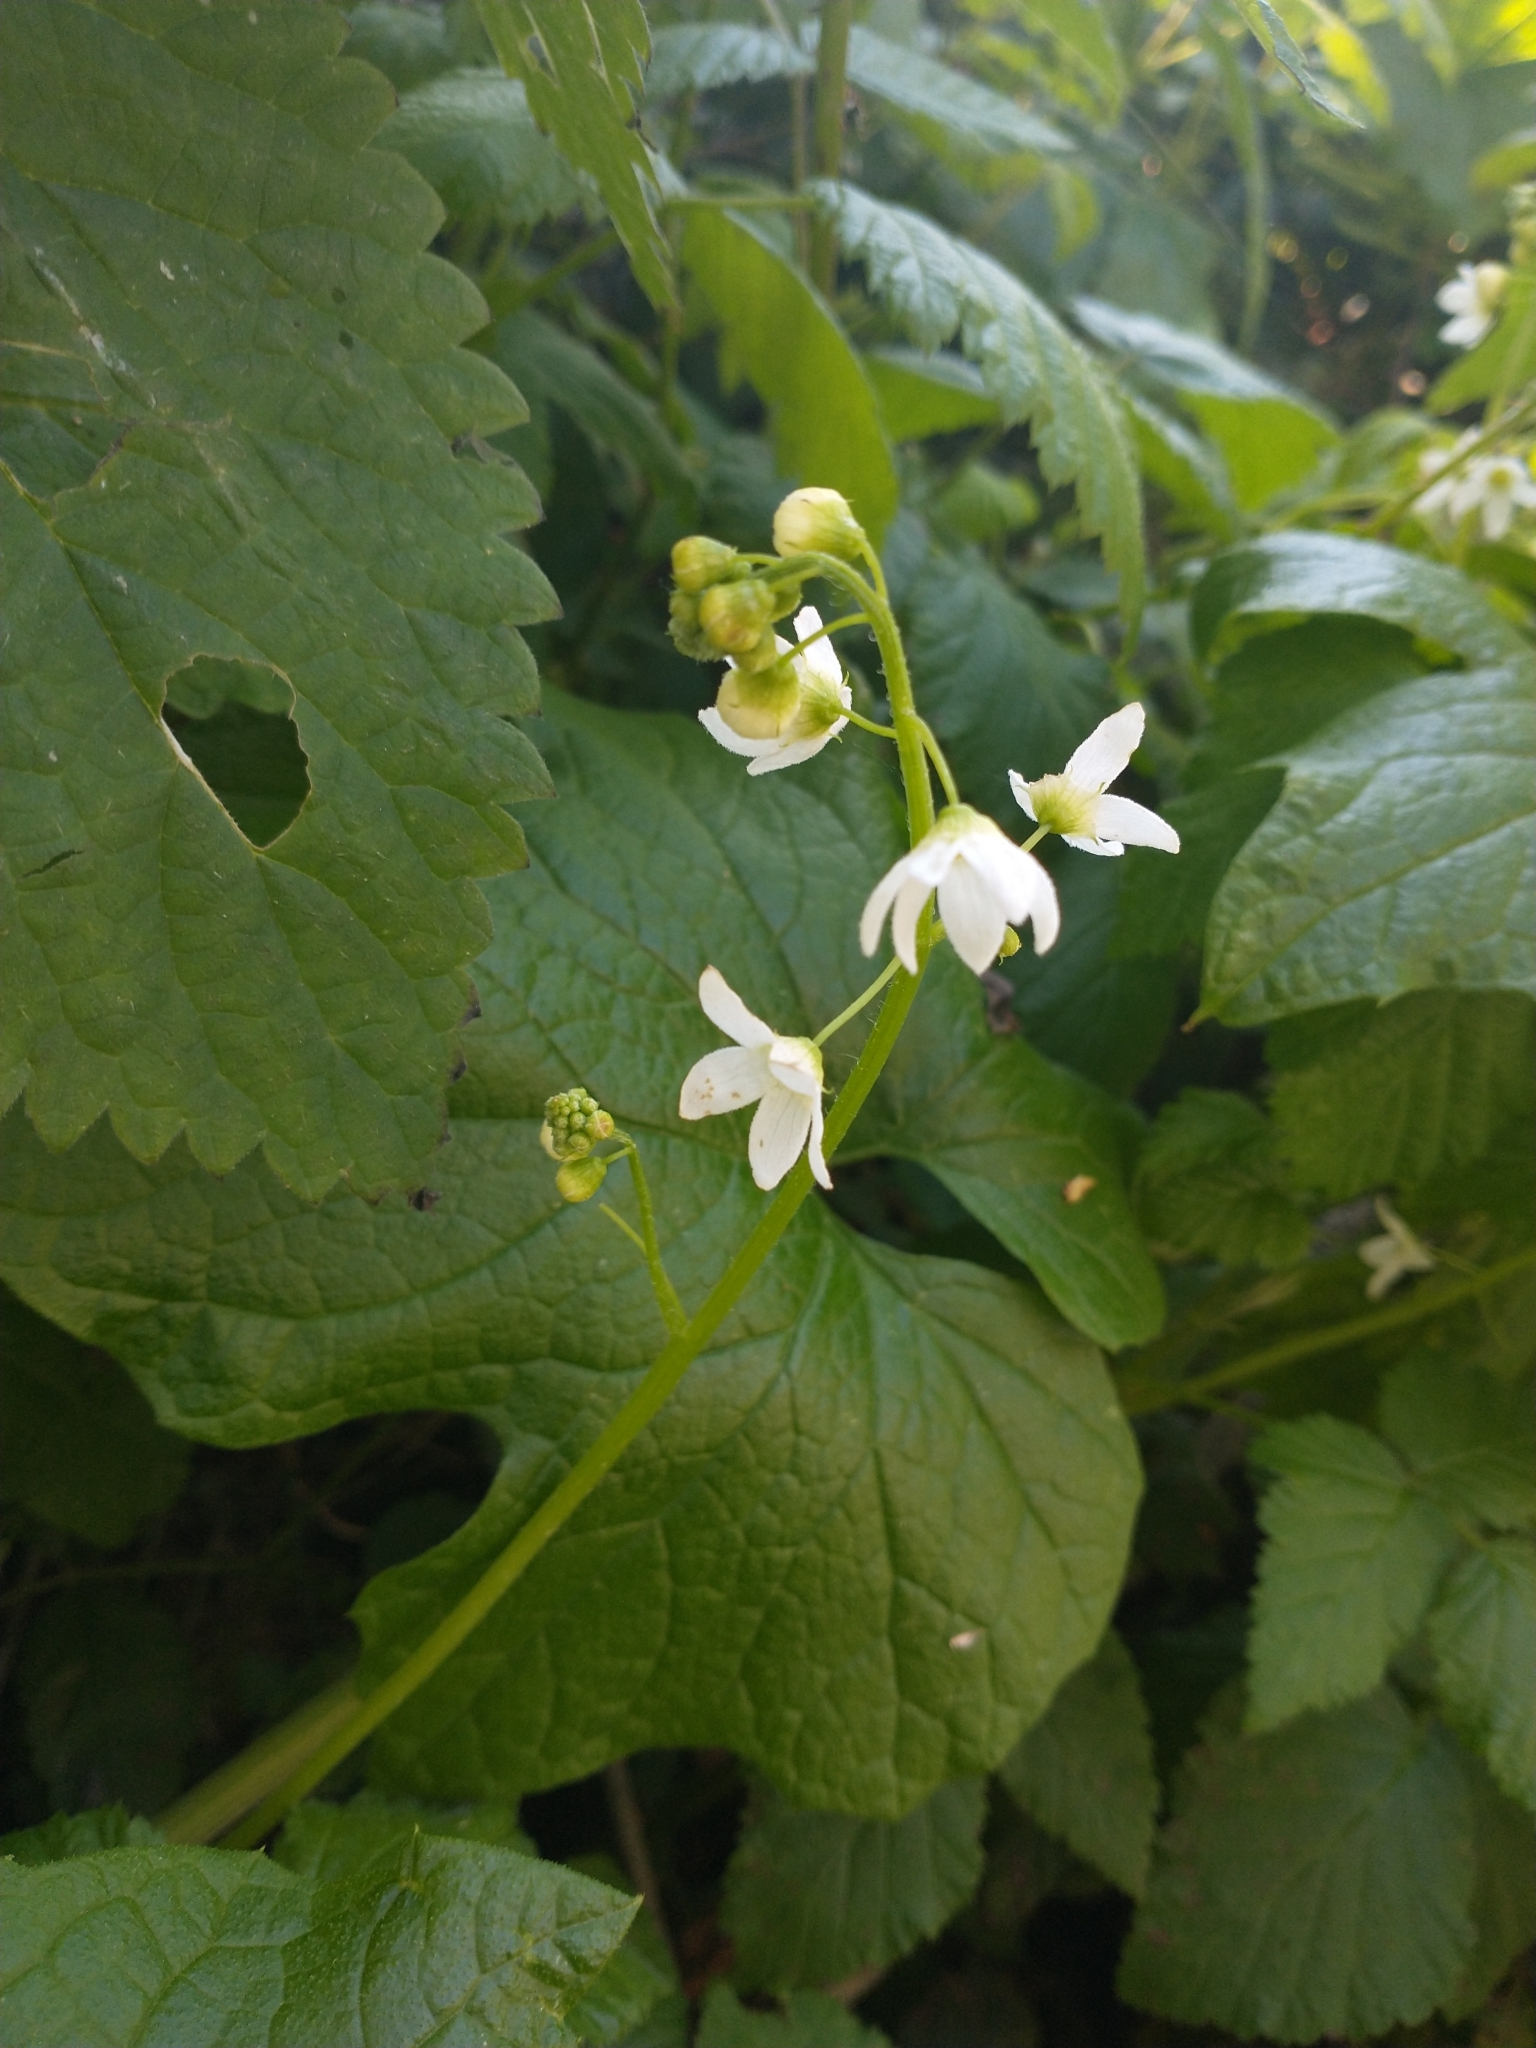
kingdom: Plantae
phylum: Tracheophyta
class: Magnoliopsida
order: Cucurbitales
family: Cucurbitaceae
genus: Marah
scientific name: Marah oregana
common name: Coastal manroot
